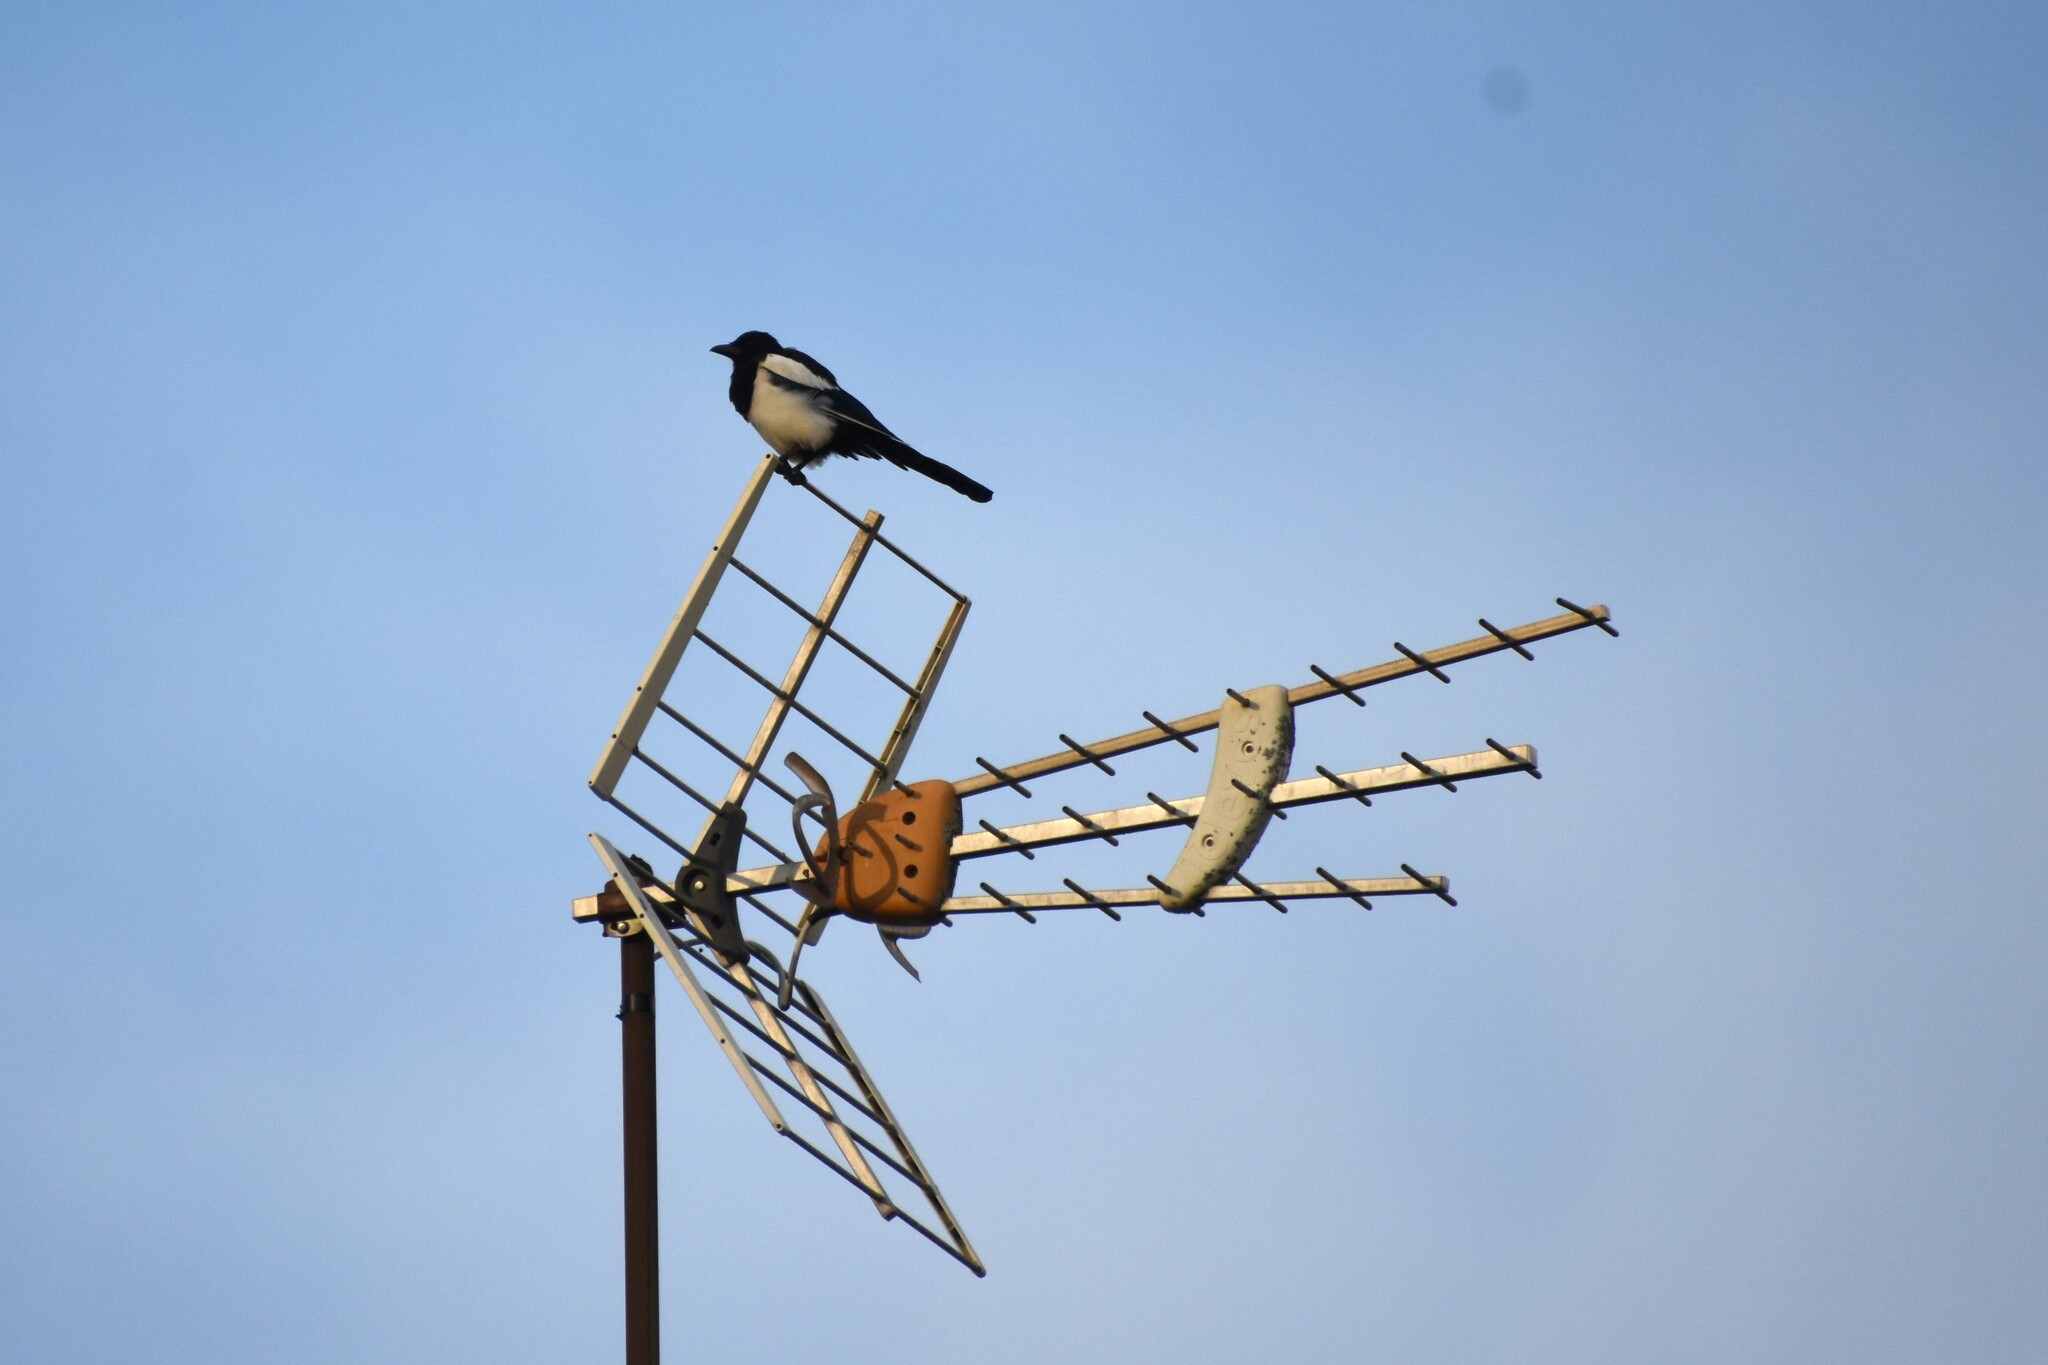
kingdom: Animalia
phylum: Chordata
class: Aves
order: Passeriformes
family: Corvidae
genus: Pica
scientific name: Pica pica
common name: Eurasian magpie
